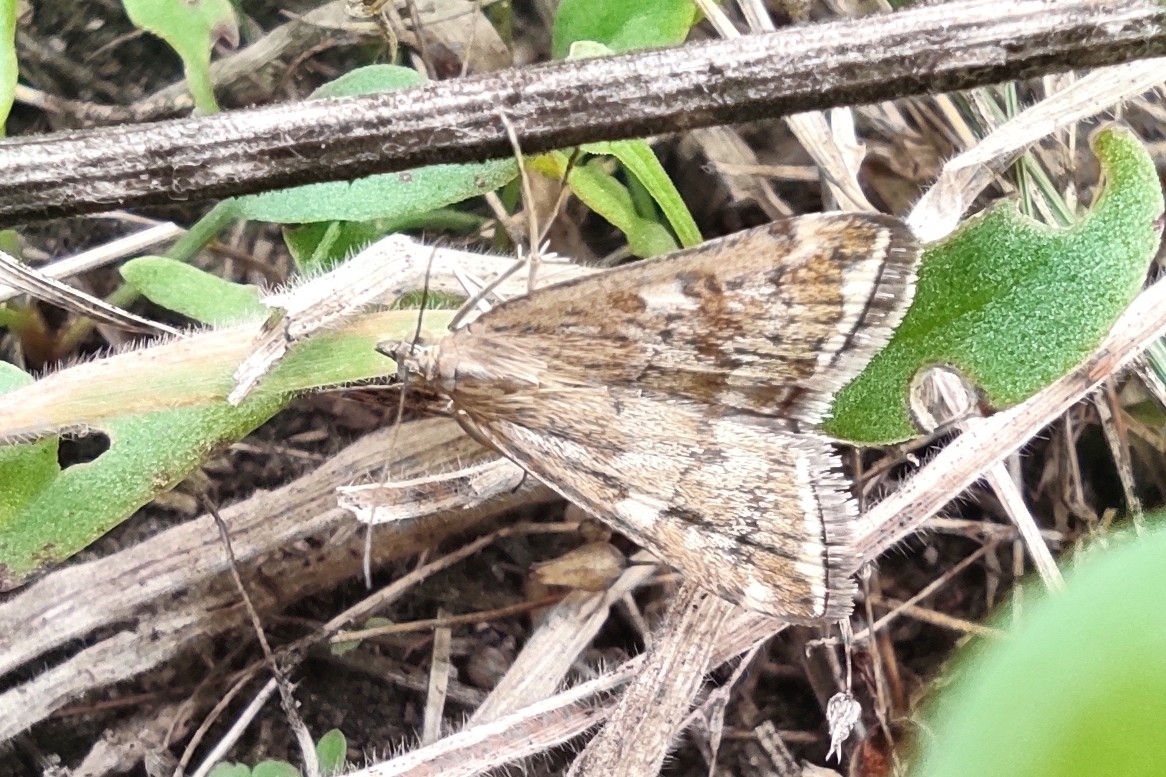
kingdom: Animalia
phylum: Arthropoda
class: Insecta
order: Lepidoptera
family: Crambidae
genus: Loxostege
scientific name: Loxostege sticticalis
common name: Crambid moth
